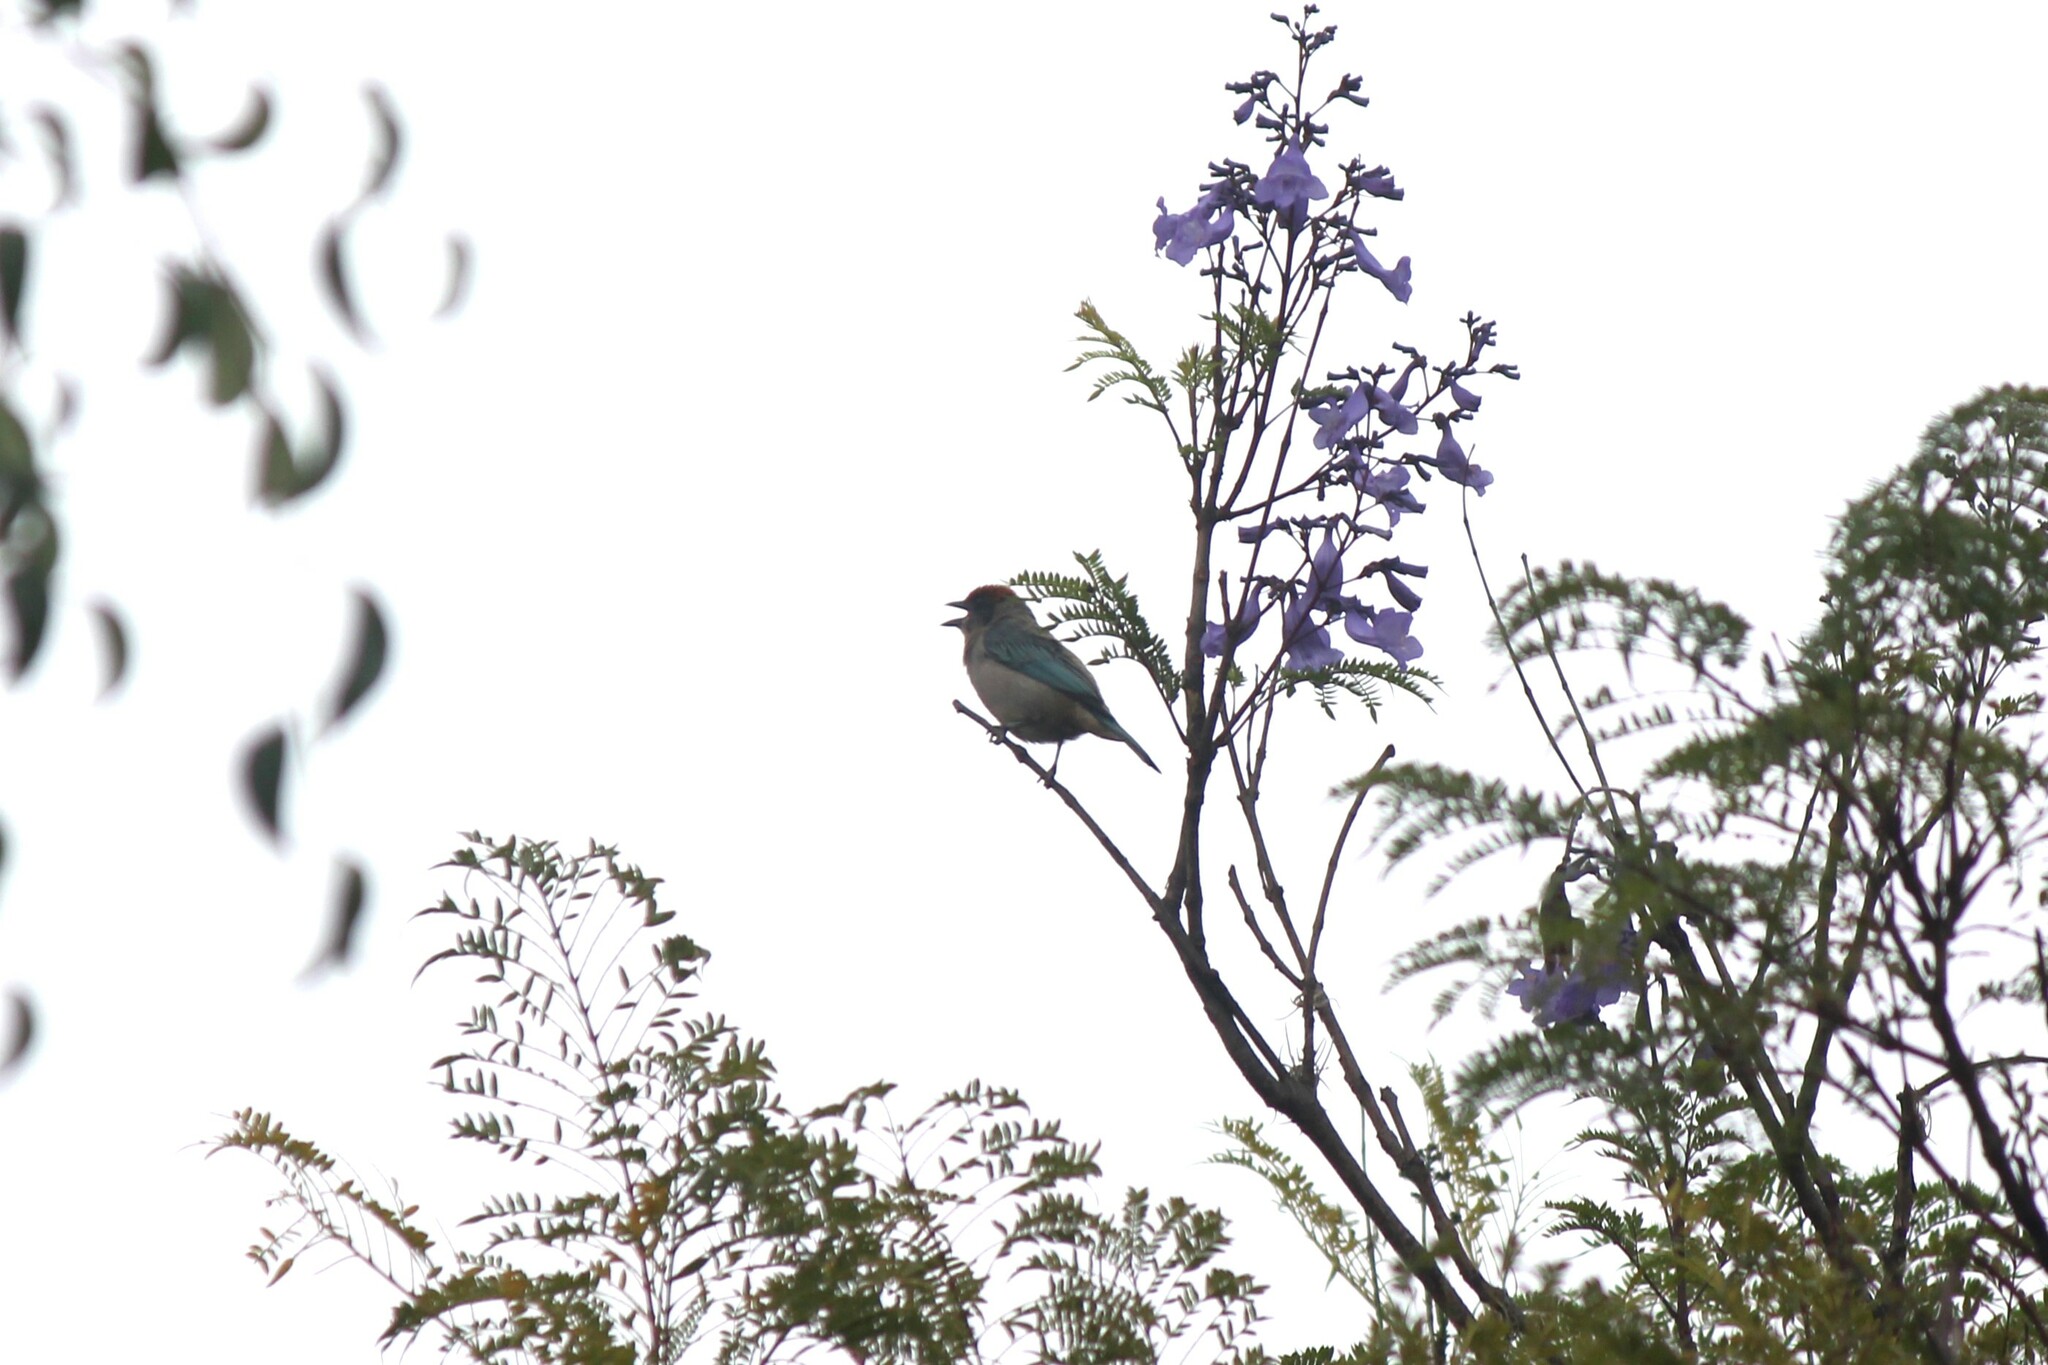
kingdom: Animalia
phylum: Chordata
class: Aves
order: Passeriformes
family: Thraupidae
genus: Stilpnia
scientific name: Stilpnia vitriolina
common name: Scrub tanager
